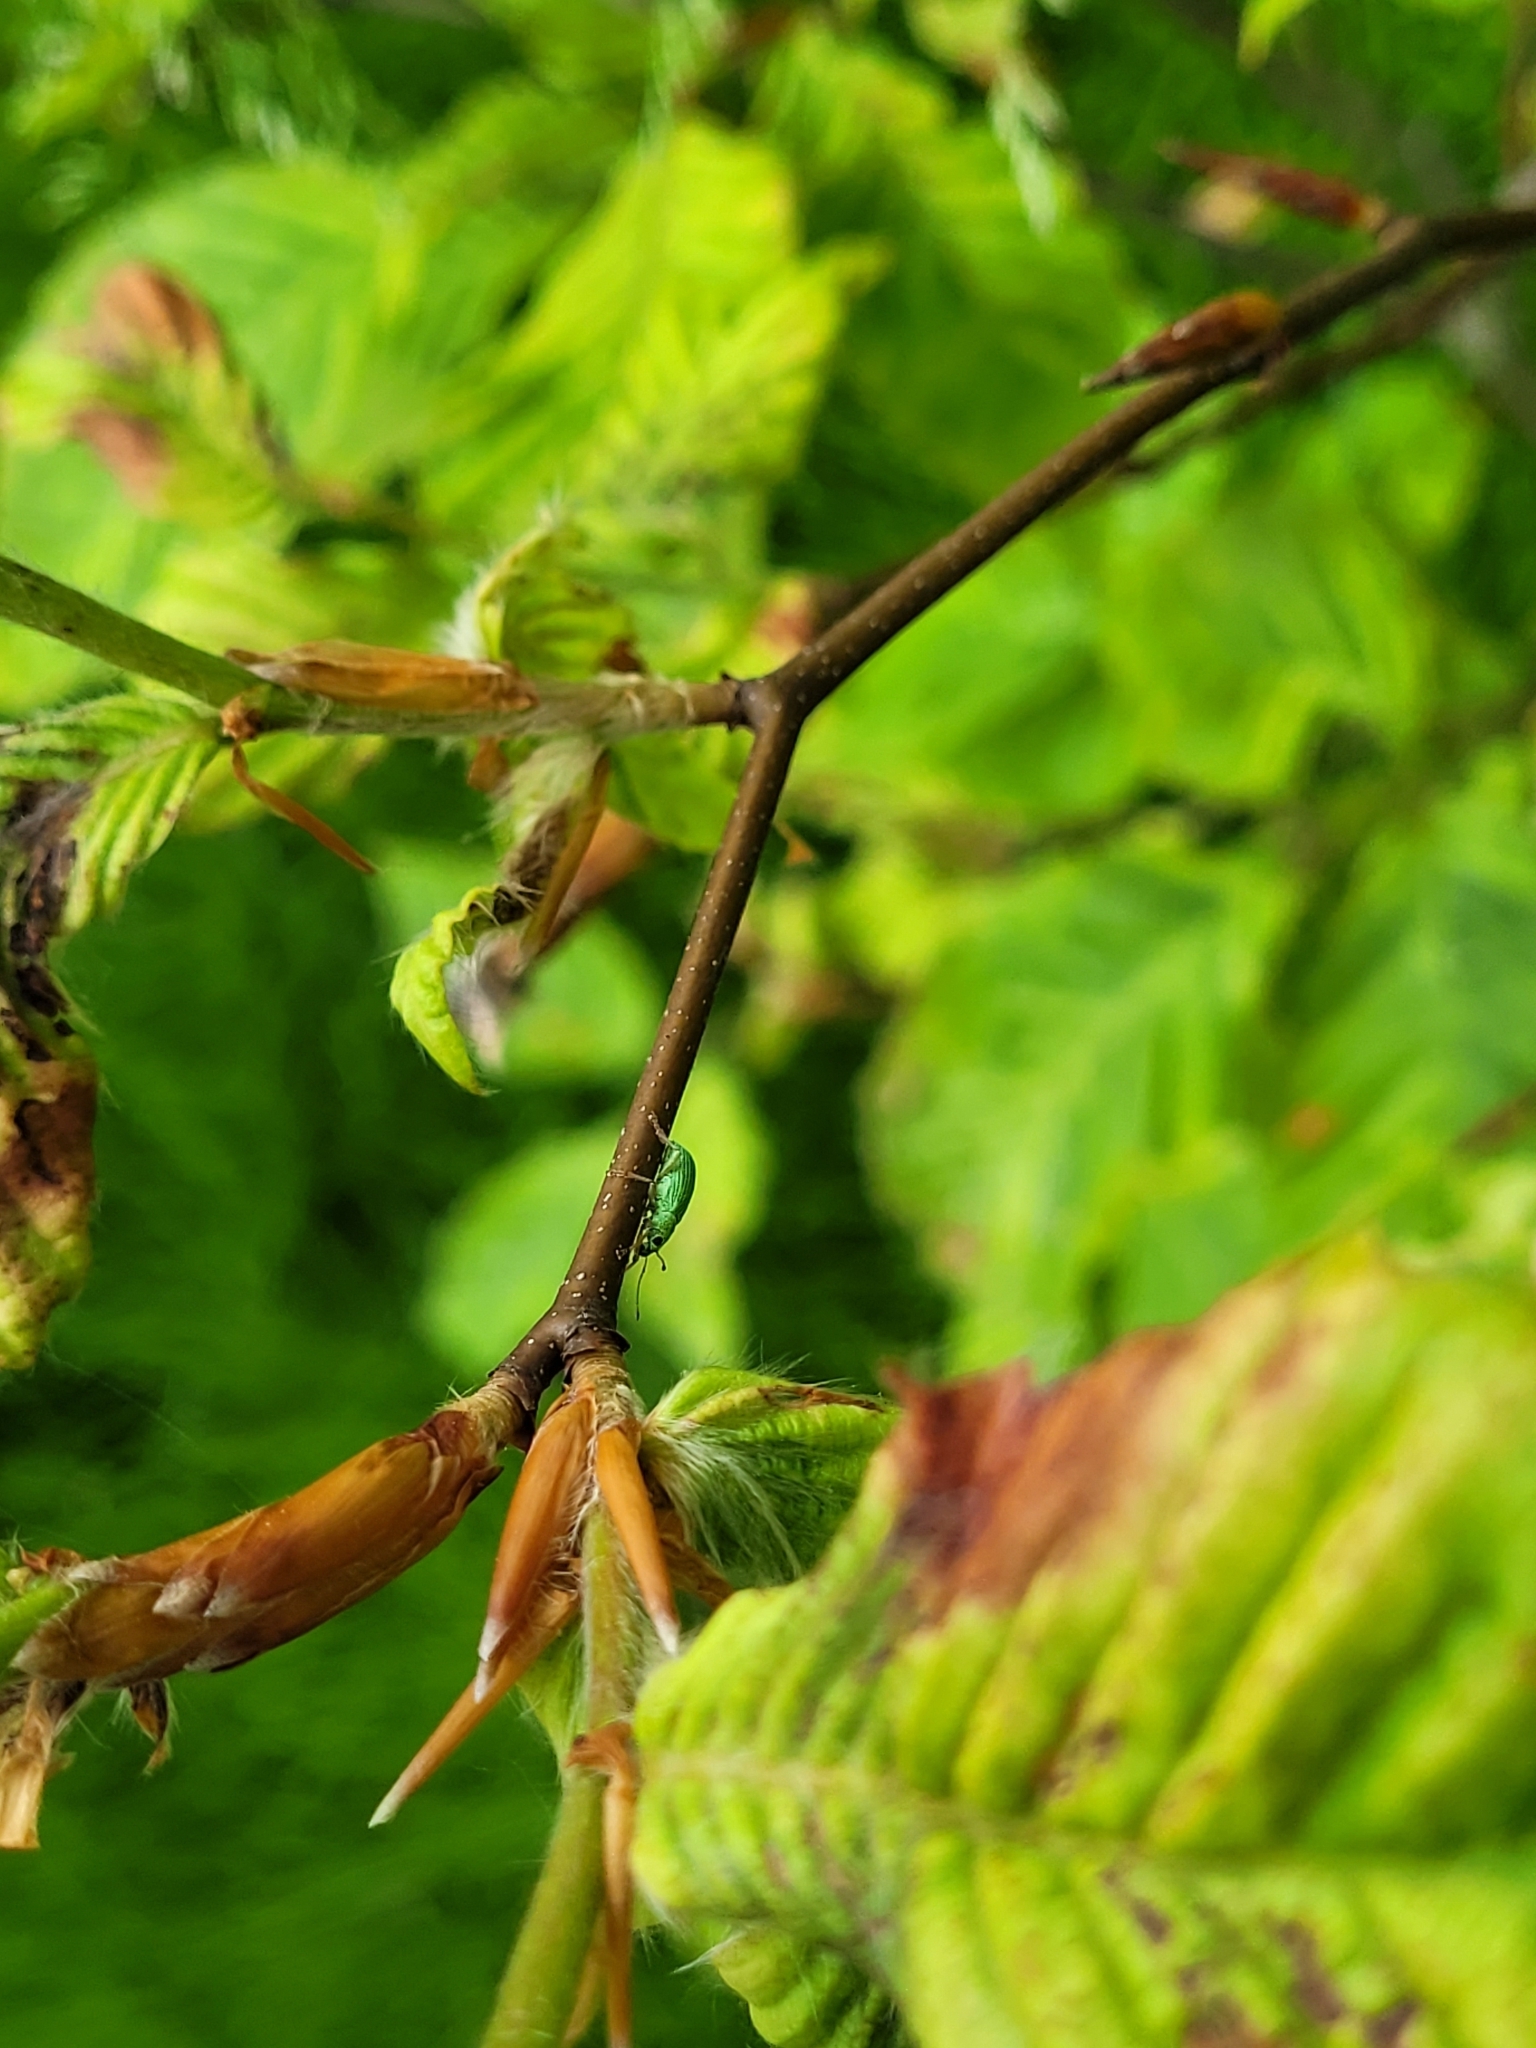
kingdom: Animalia
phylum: Arthropoda
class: Insecta
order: Coleoptera
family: Curculionidae
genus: Polydrusus
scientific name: Polydrusus formosus
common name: Weevil
